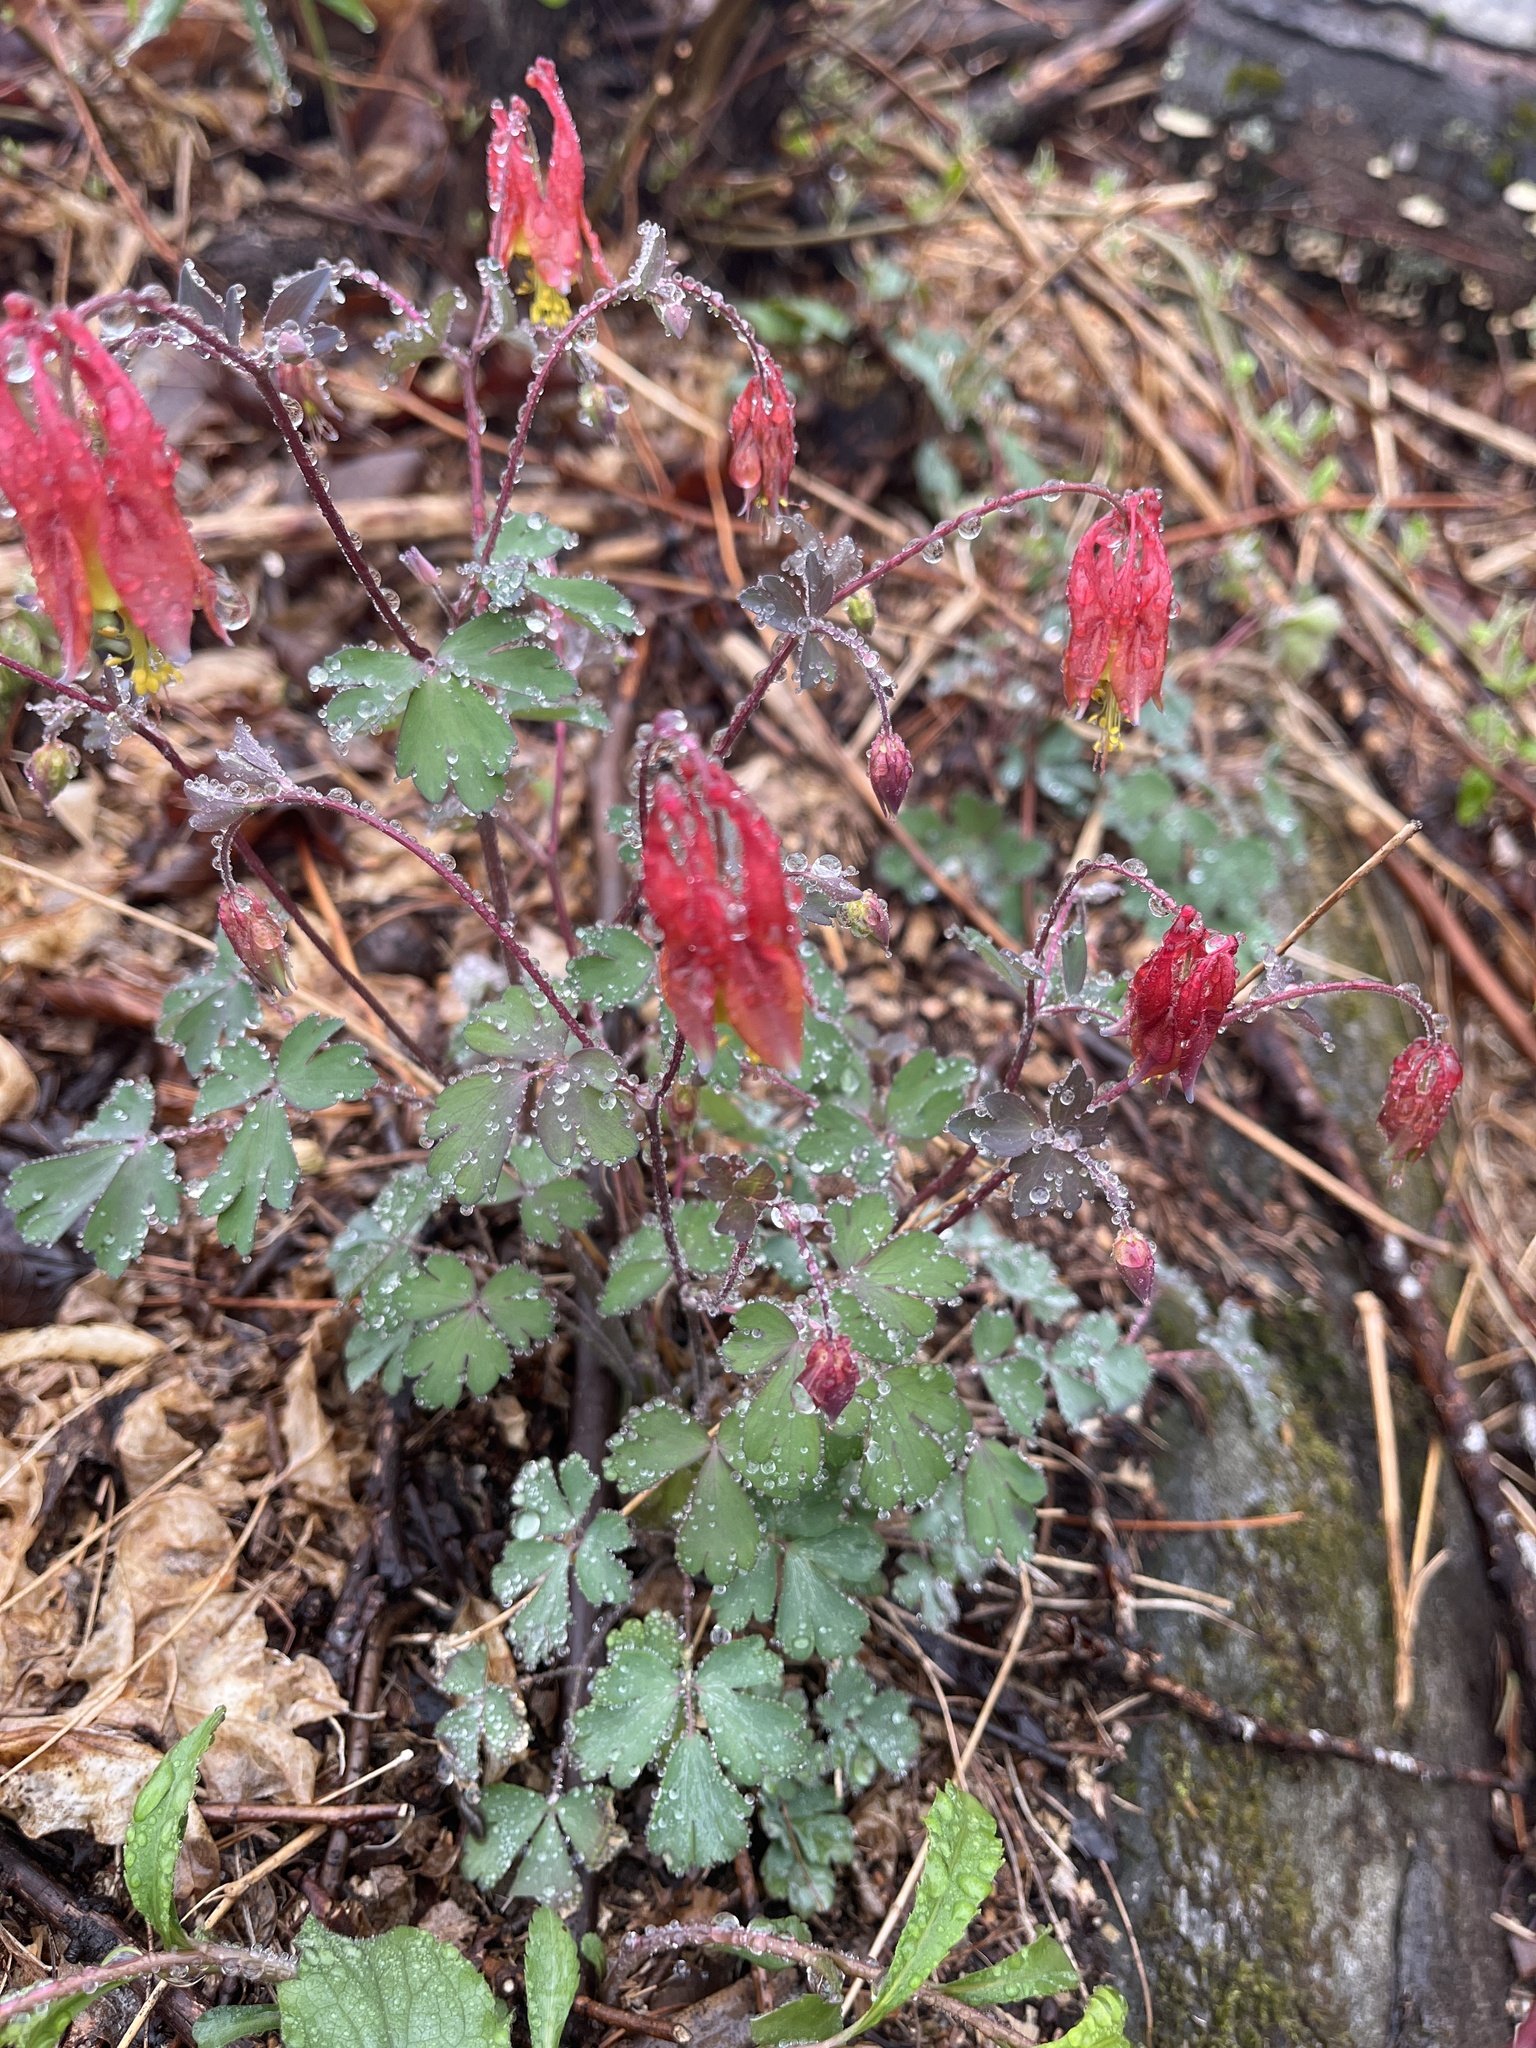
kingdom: Plantae
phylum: Tracheophyta
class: Magnoliopsida
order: Ranunculales
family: Ranunculaceae
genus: Aquilegia
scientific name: Aquilegia canadensis
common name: American columbine
